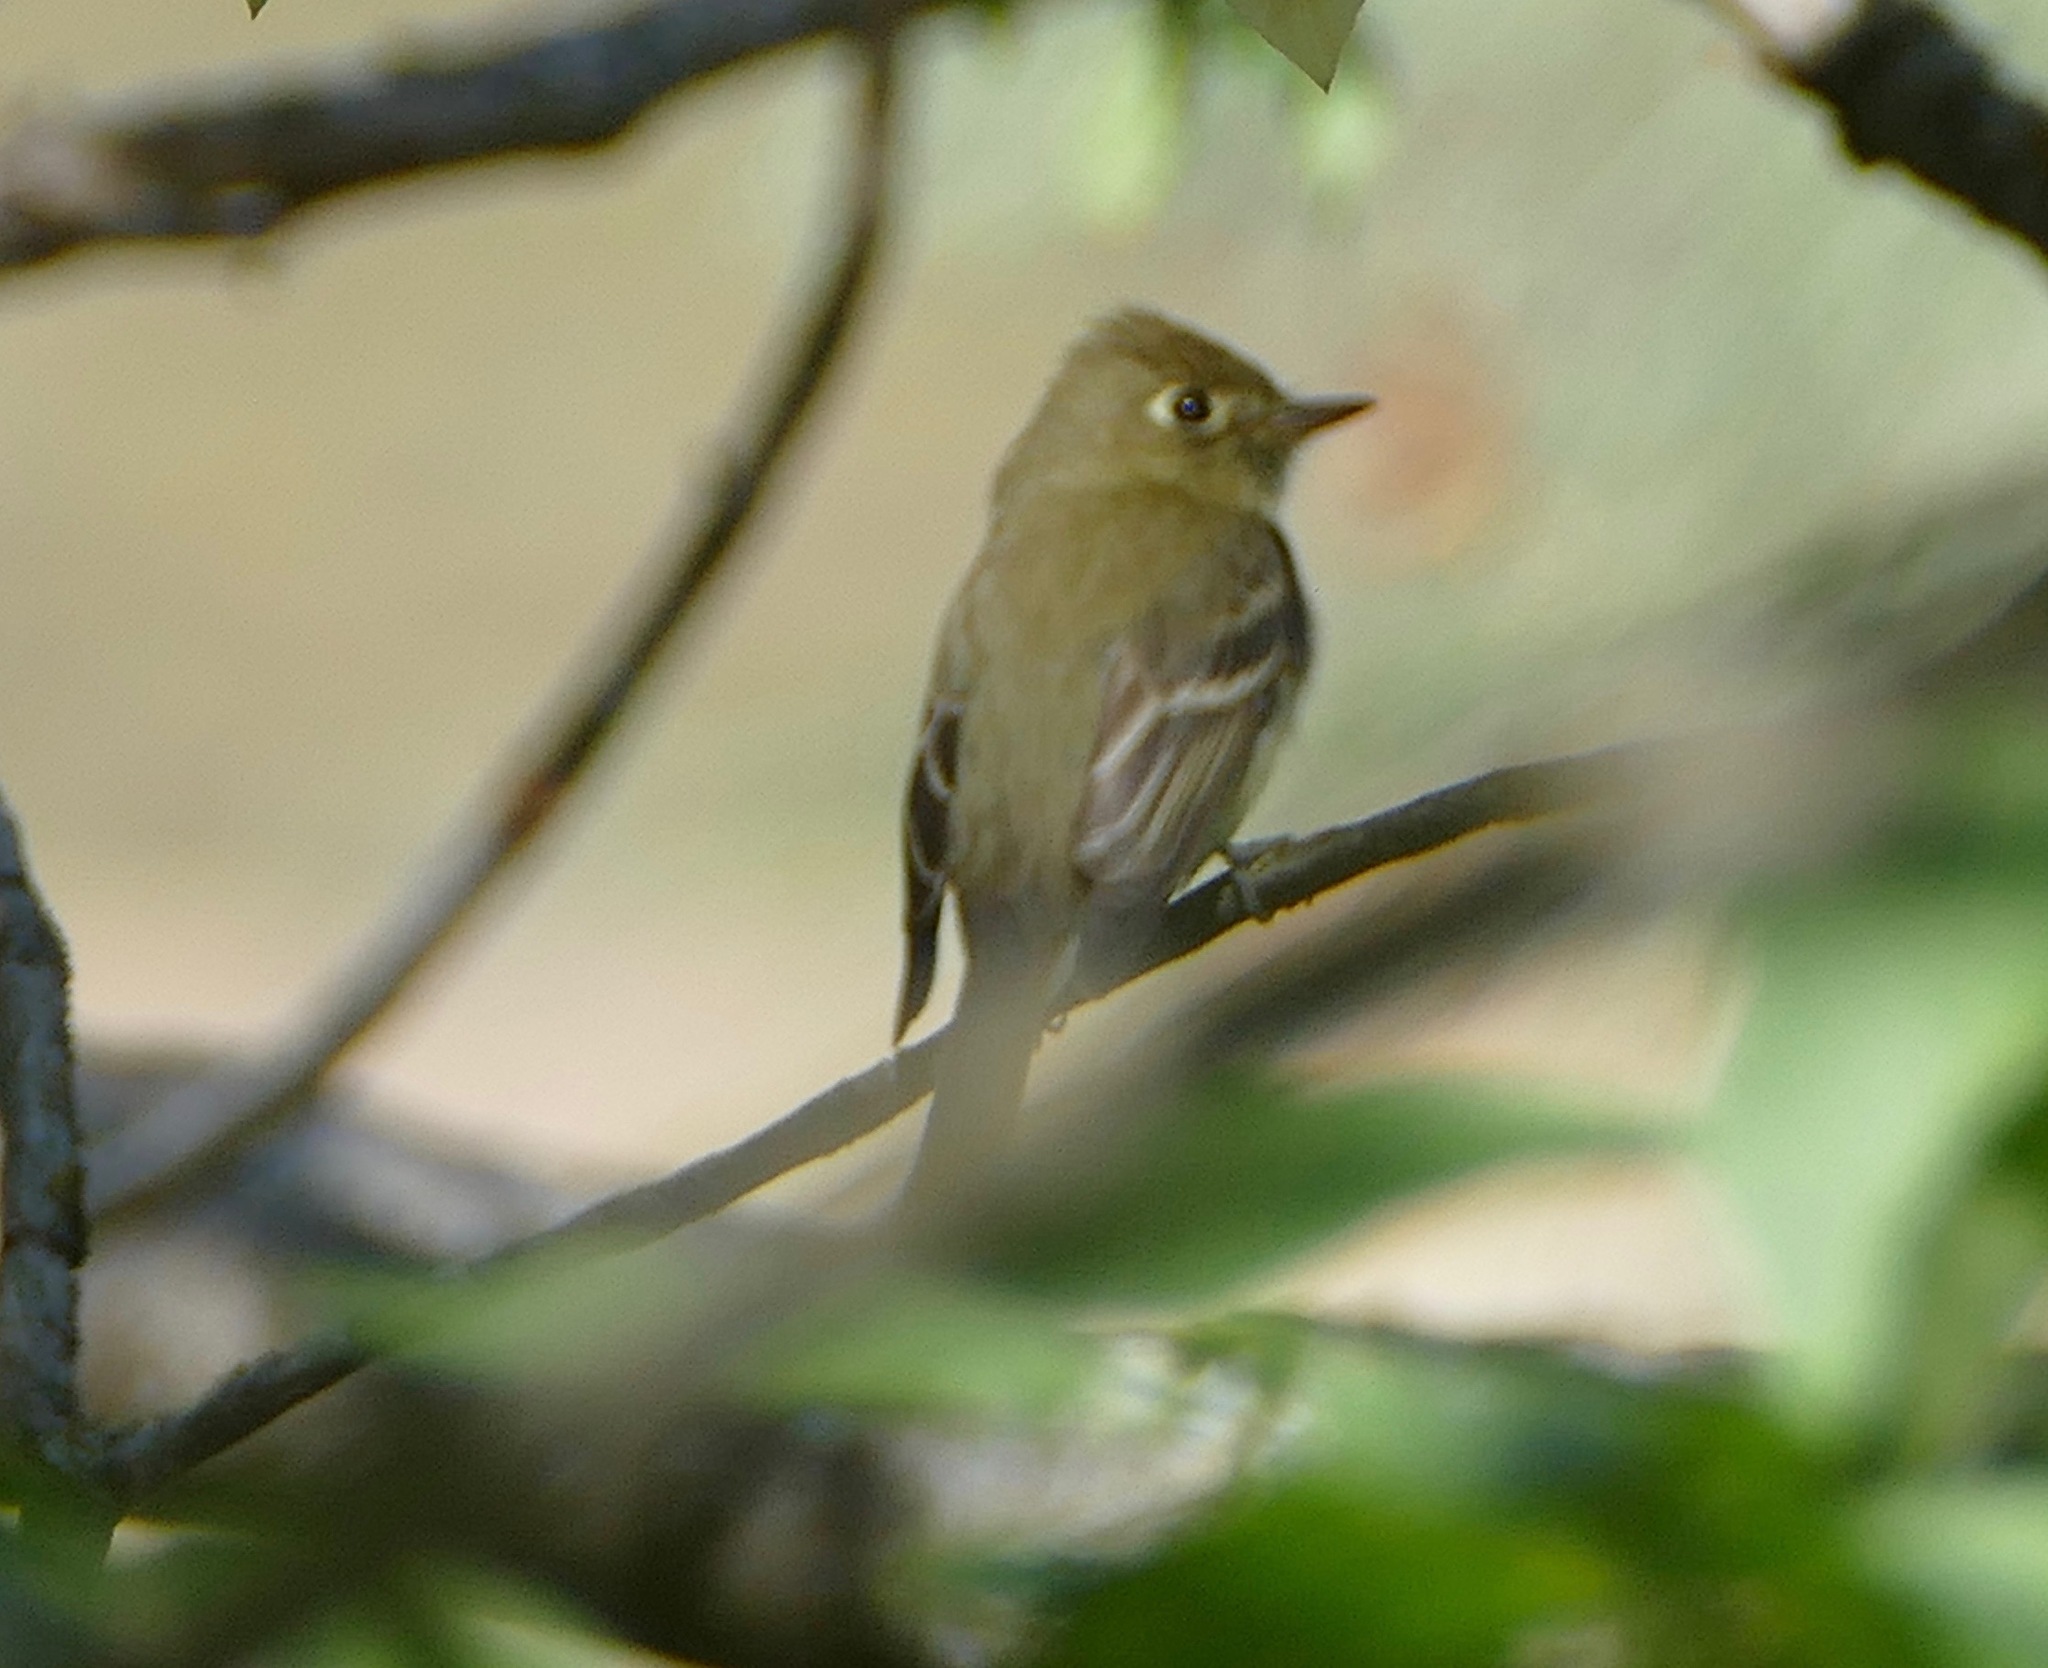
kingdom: Animalia
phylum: Chordata
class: Aves
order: Passeriformes
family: Tyrannidae
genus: Empidonax
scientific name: Empidonax difficilis
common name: Pacific-slope flycatcher
